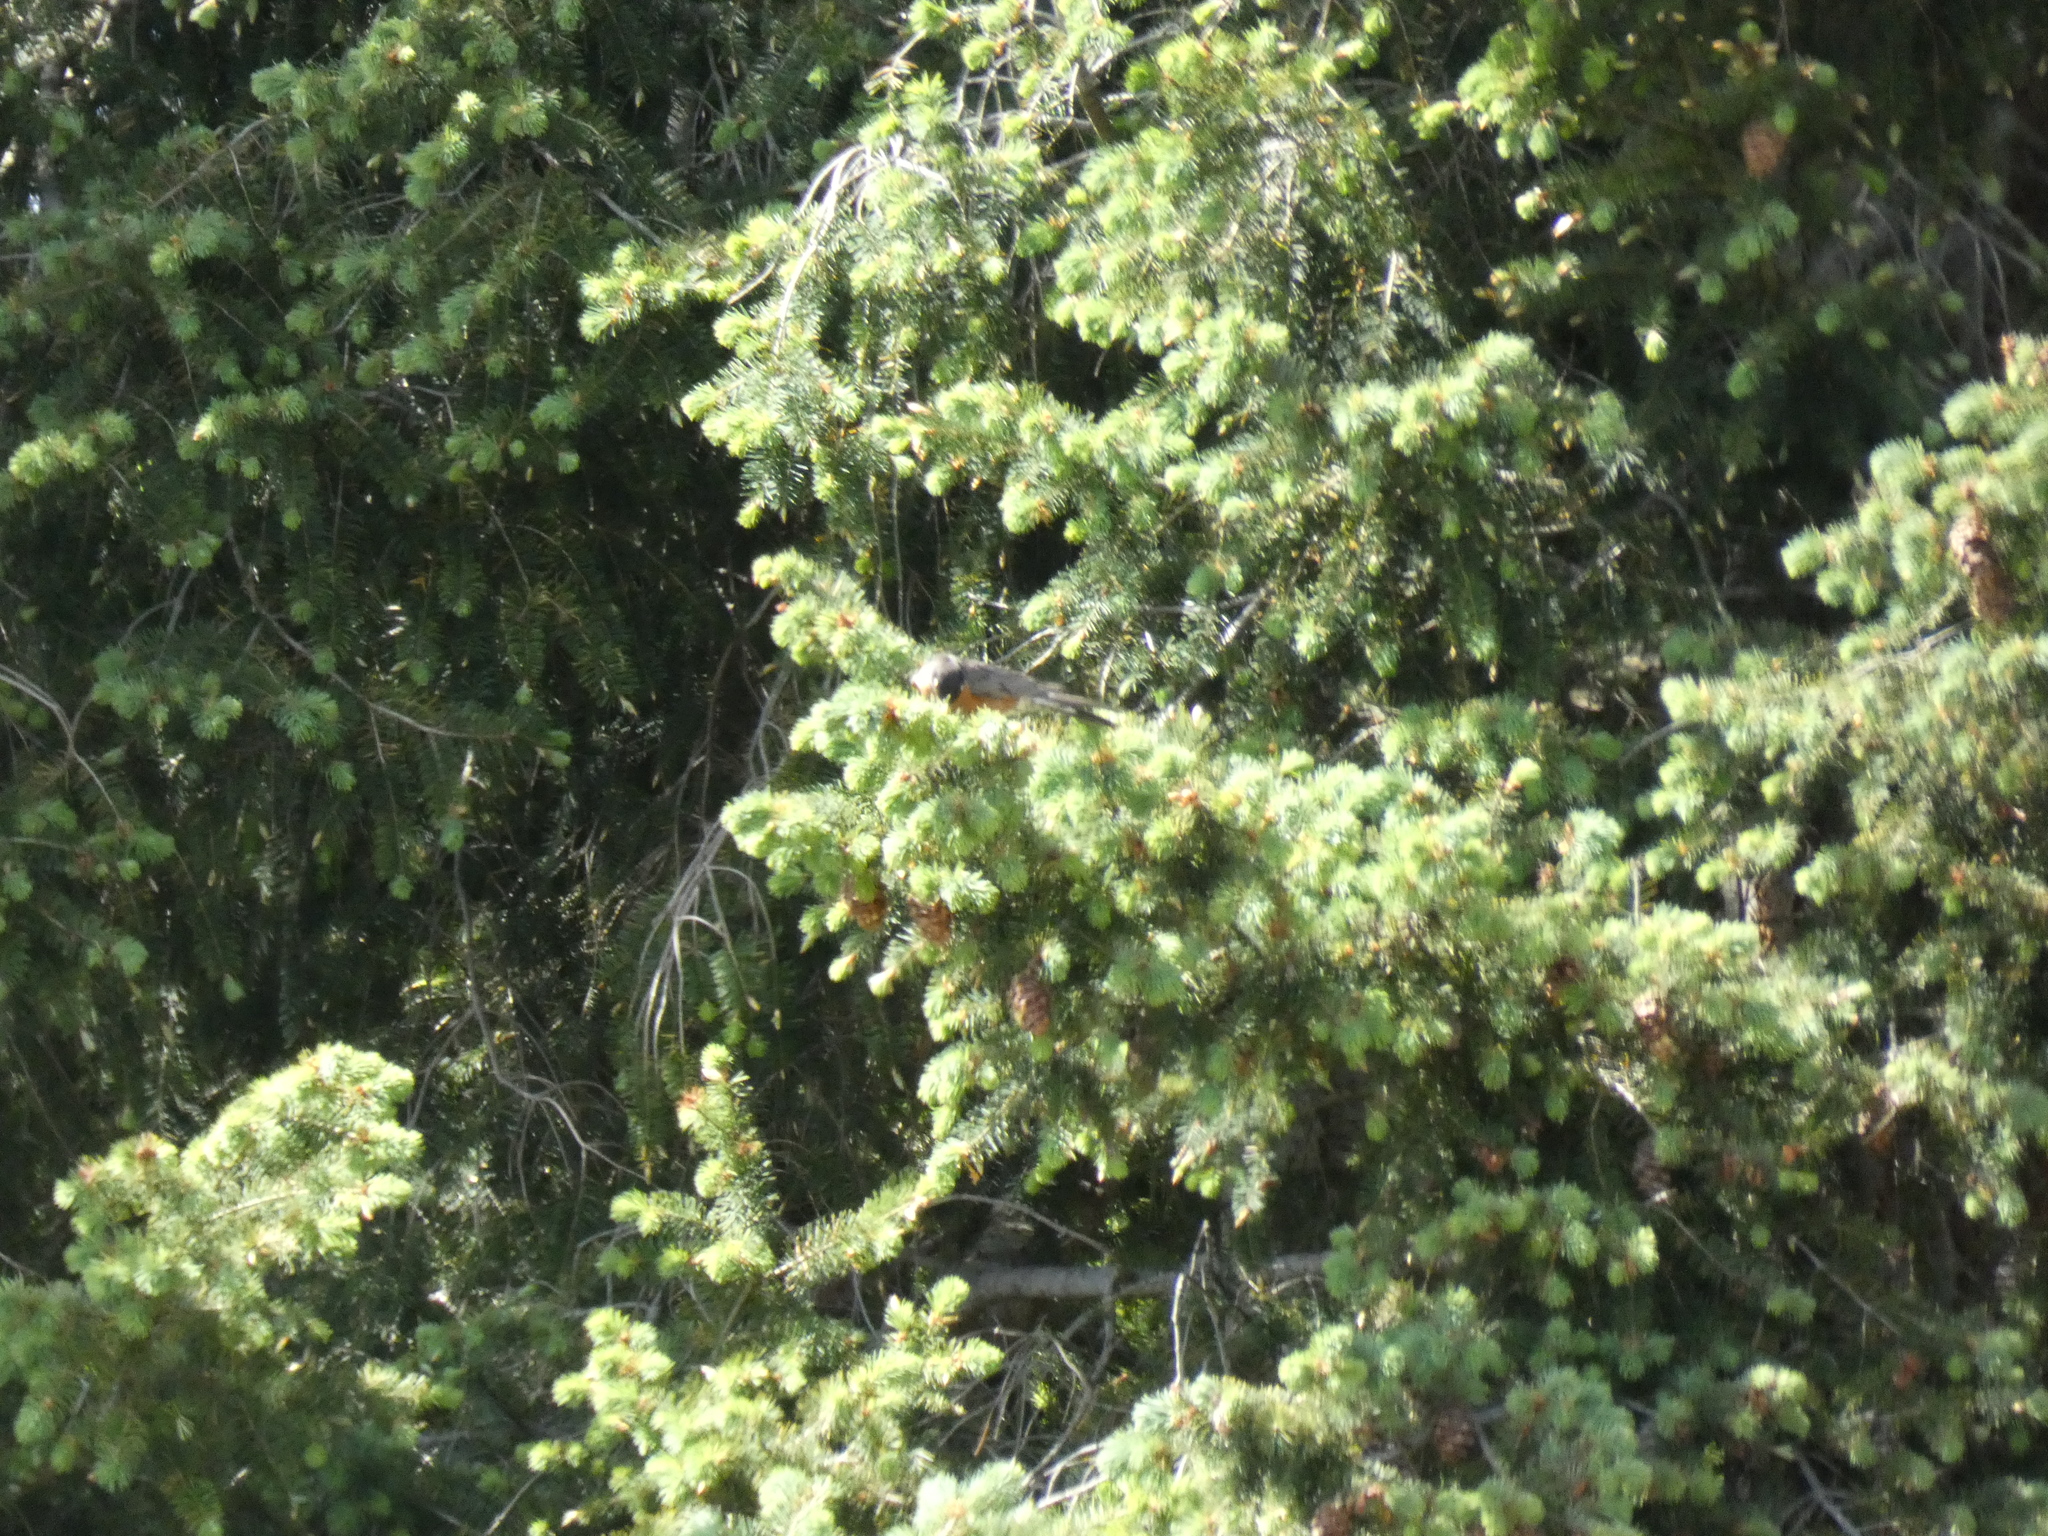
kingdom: Animalia
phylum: Chordata
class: Aves
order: Passeriformes
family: Turdidae
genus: Turdus
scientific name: Turdus migratorius
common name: American robin
